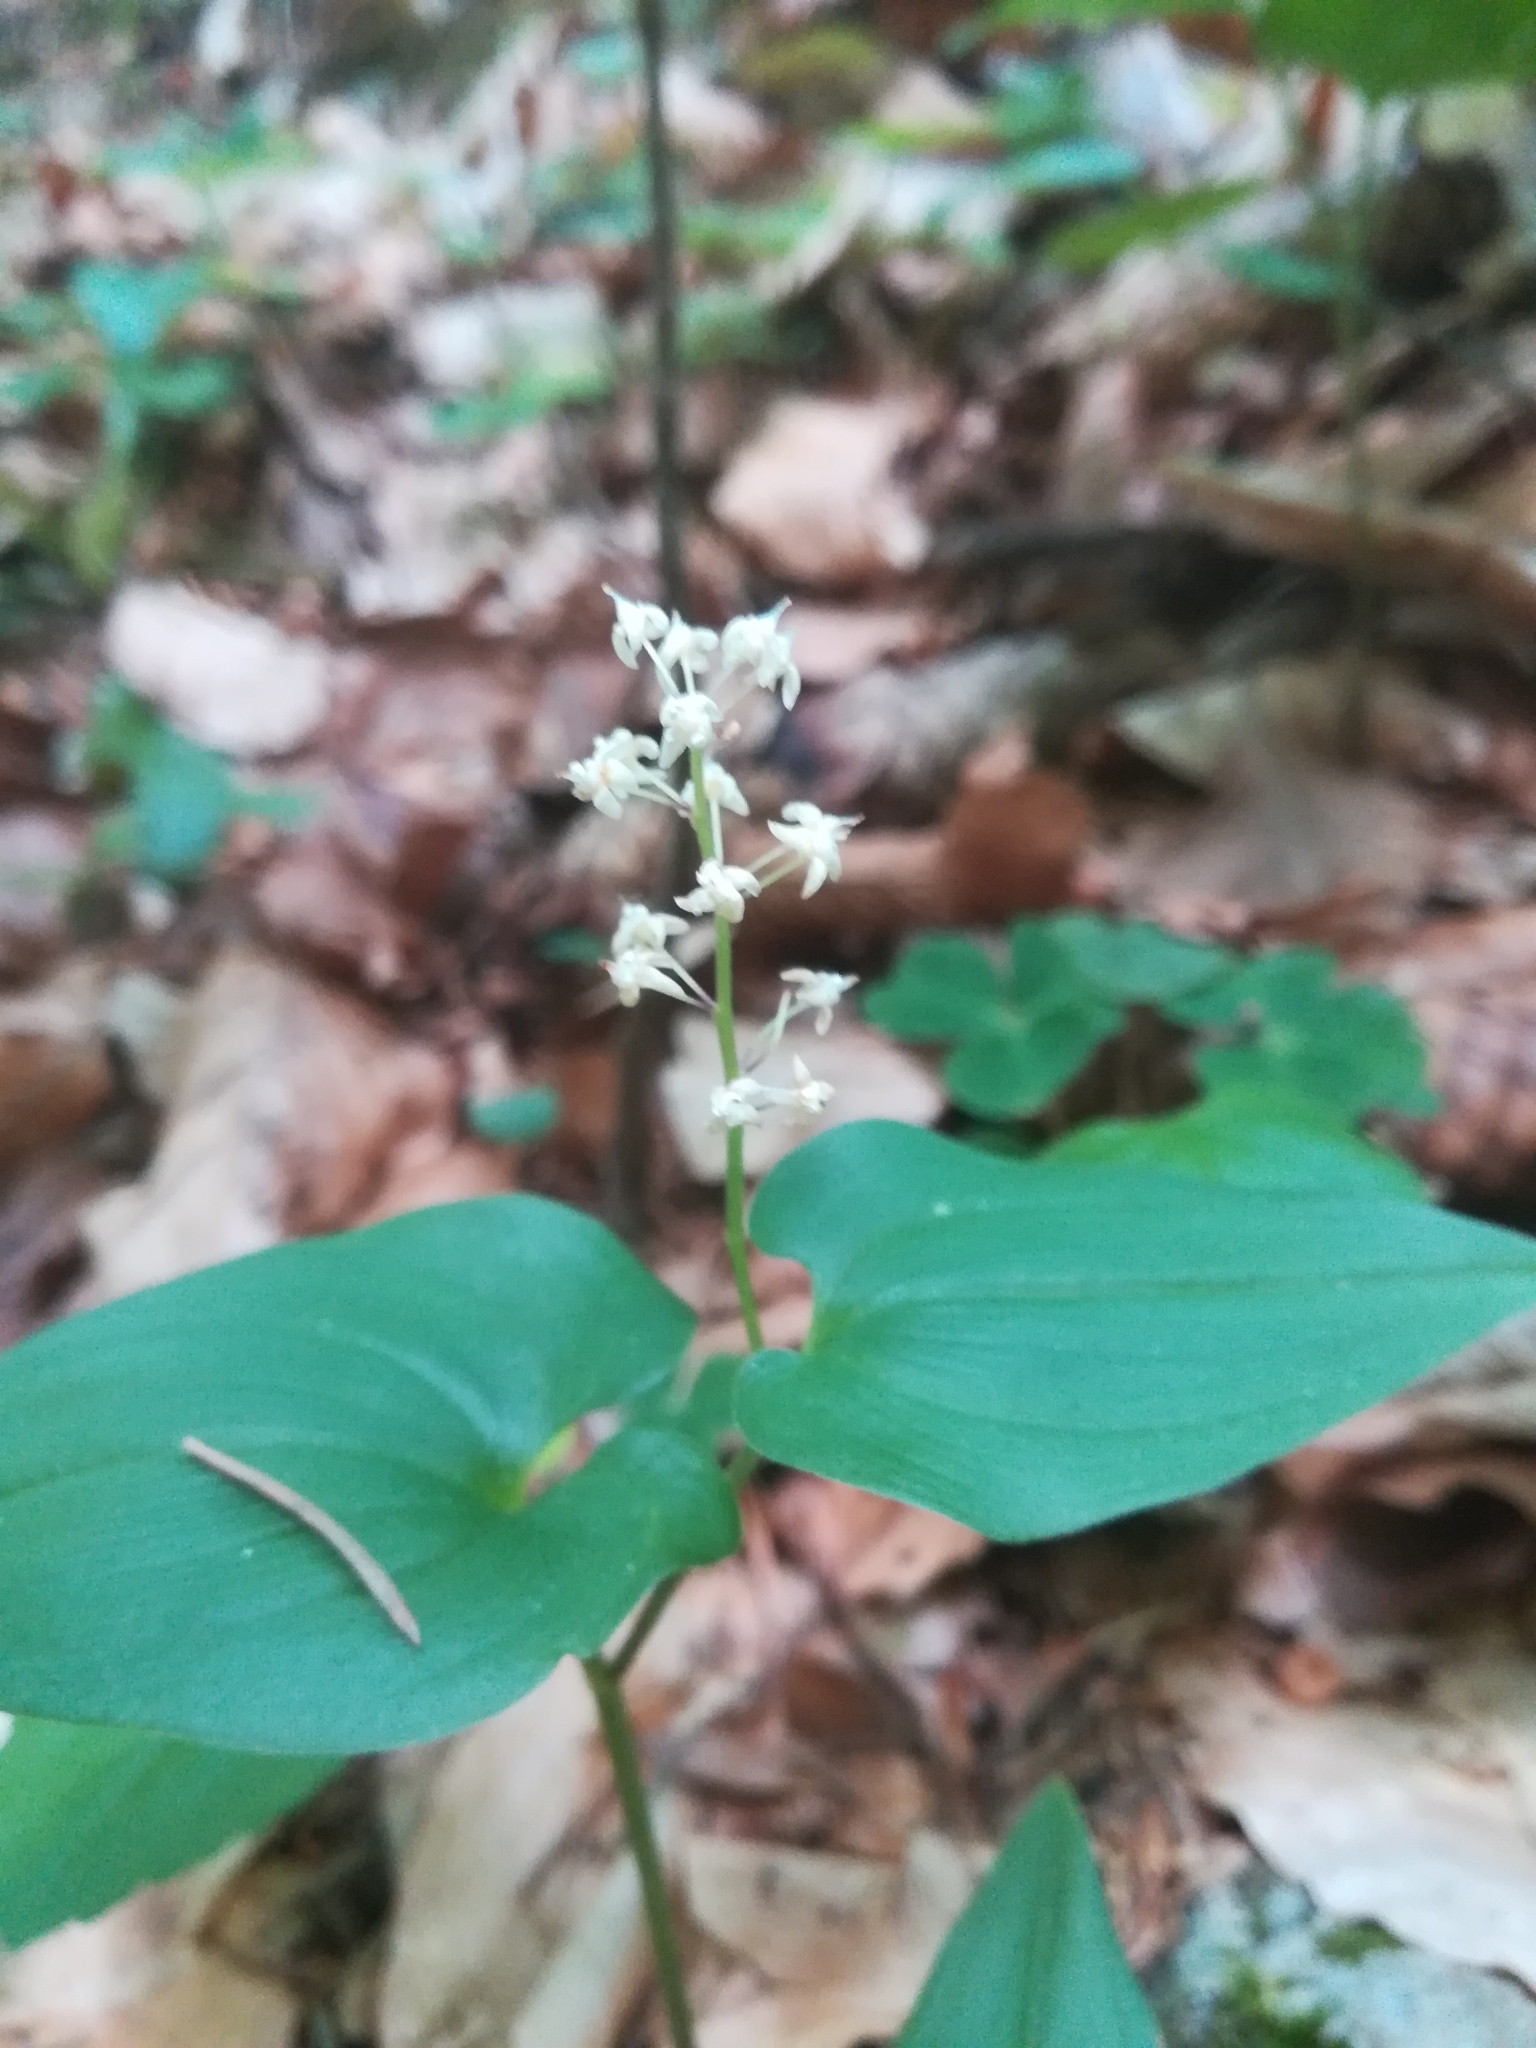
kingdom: Plantae
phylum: Tracheophyta
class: Liliopsida
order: Asparagales
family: Asparagaceae
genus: Maianthemum
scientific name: Maianthemum bifolium
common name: May lily
